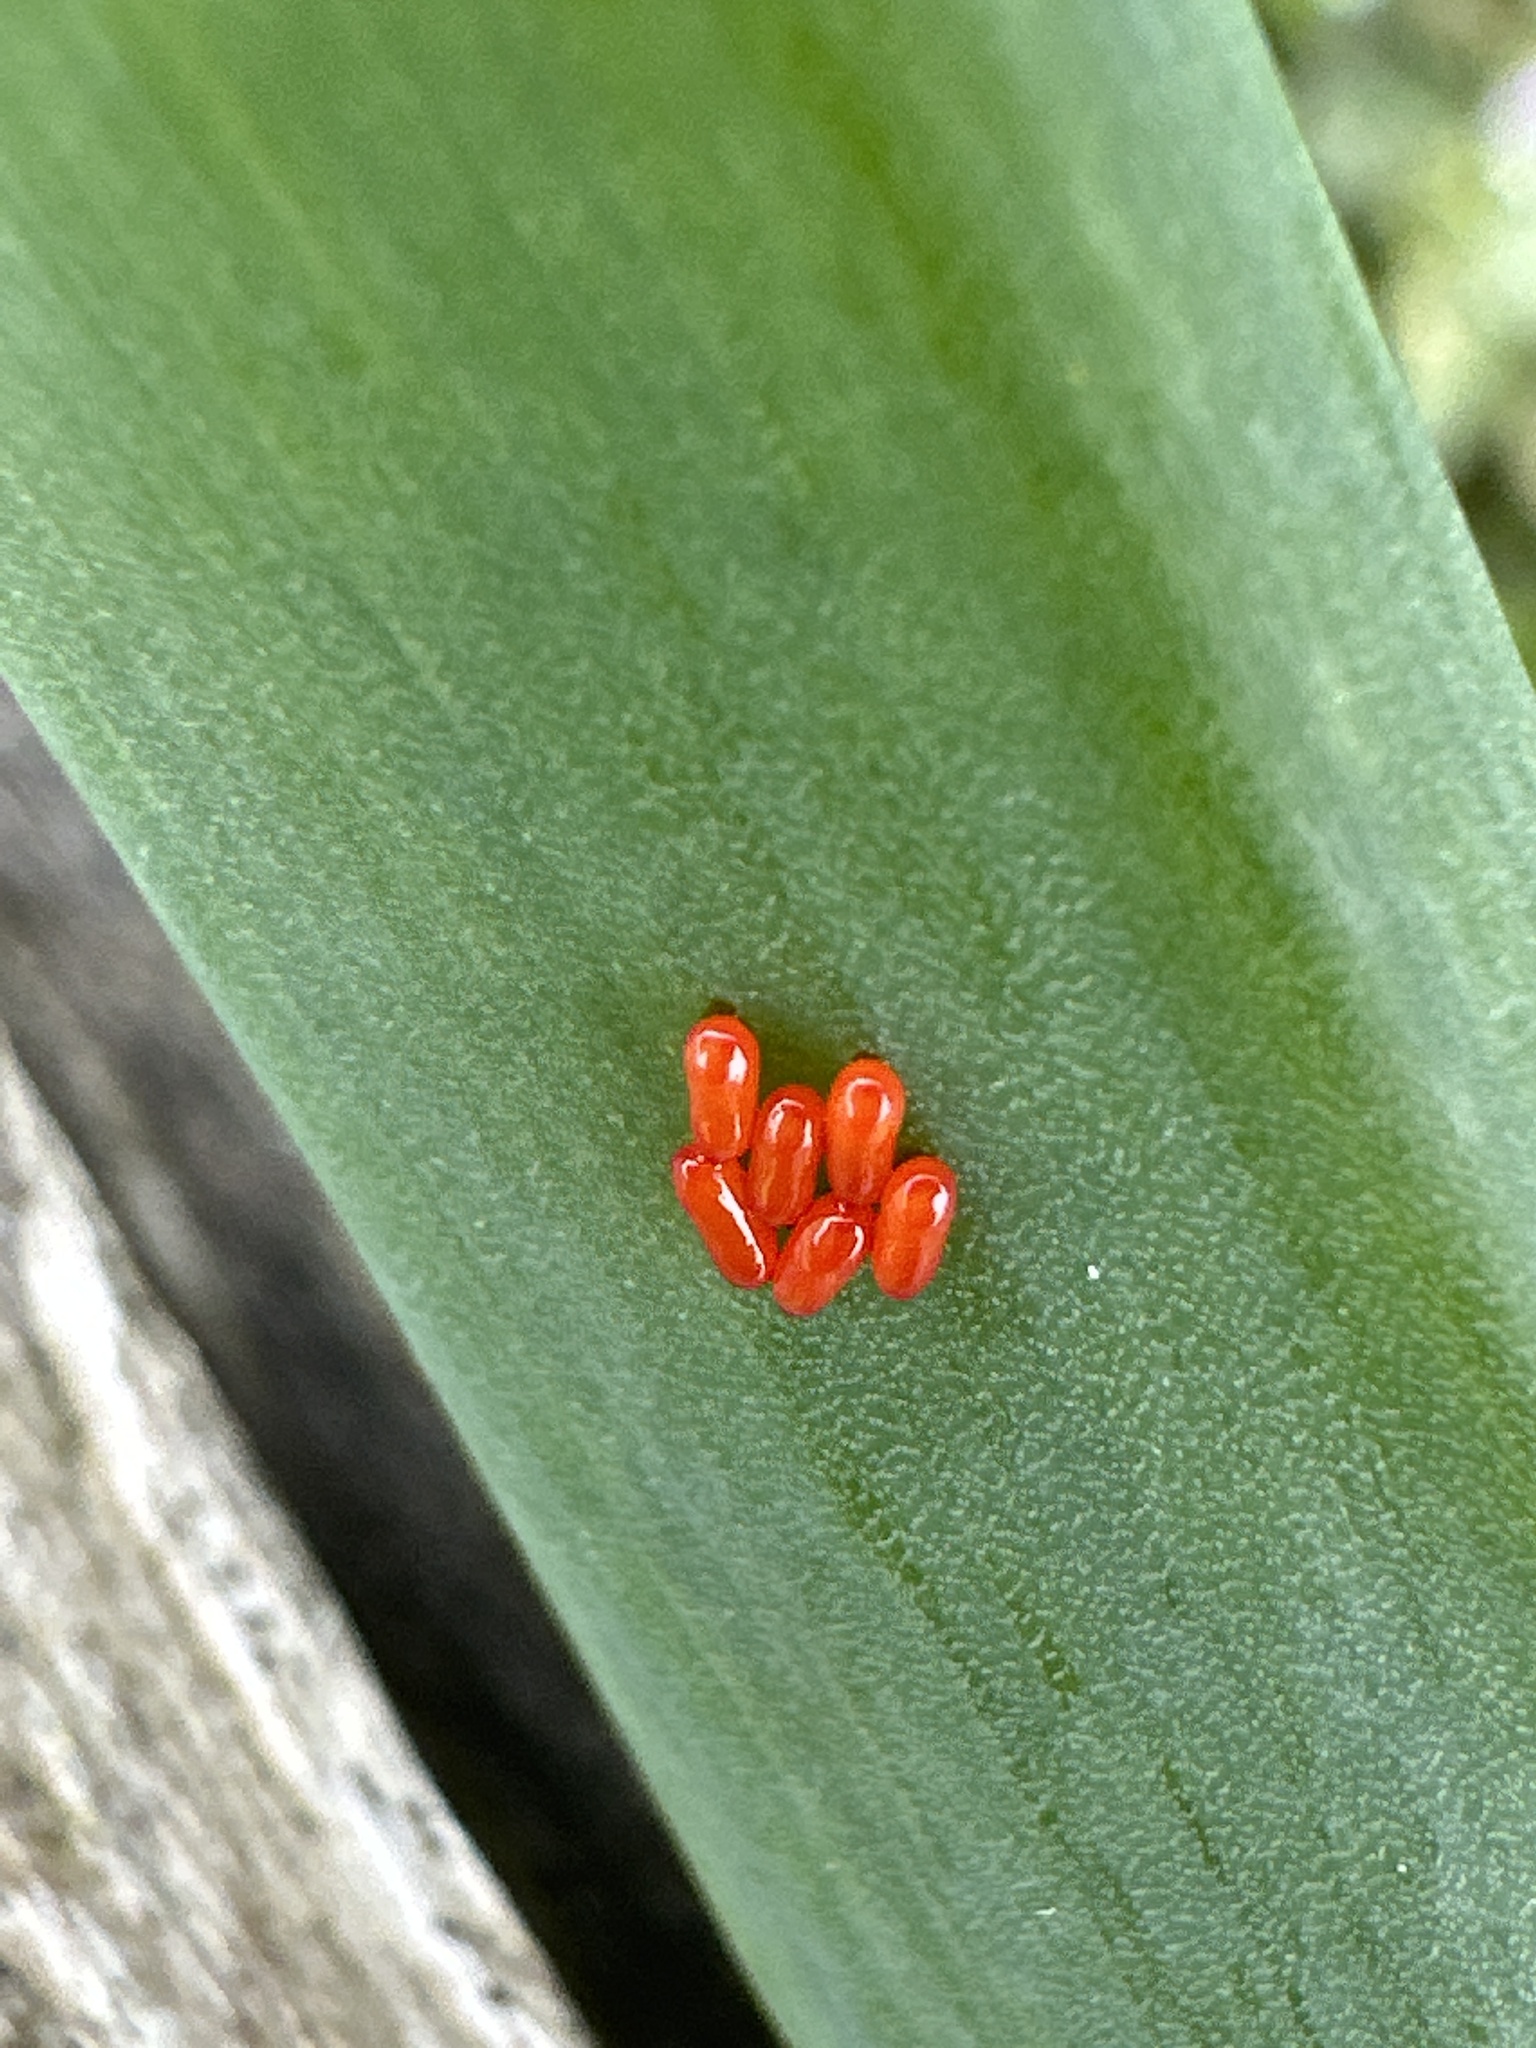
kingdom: Animalia
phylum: Arthropoda
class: Insecta
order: Coleoptera
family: Chrysomelidae
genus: Lilioceris
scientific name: Lilioceris merdigera
